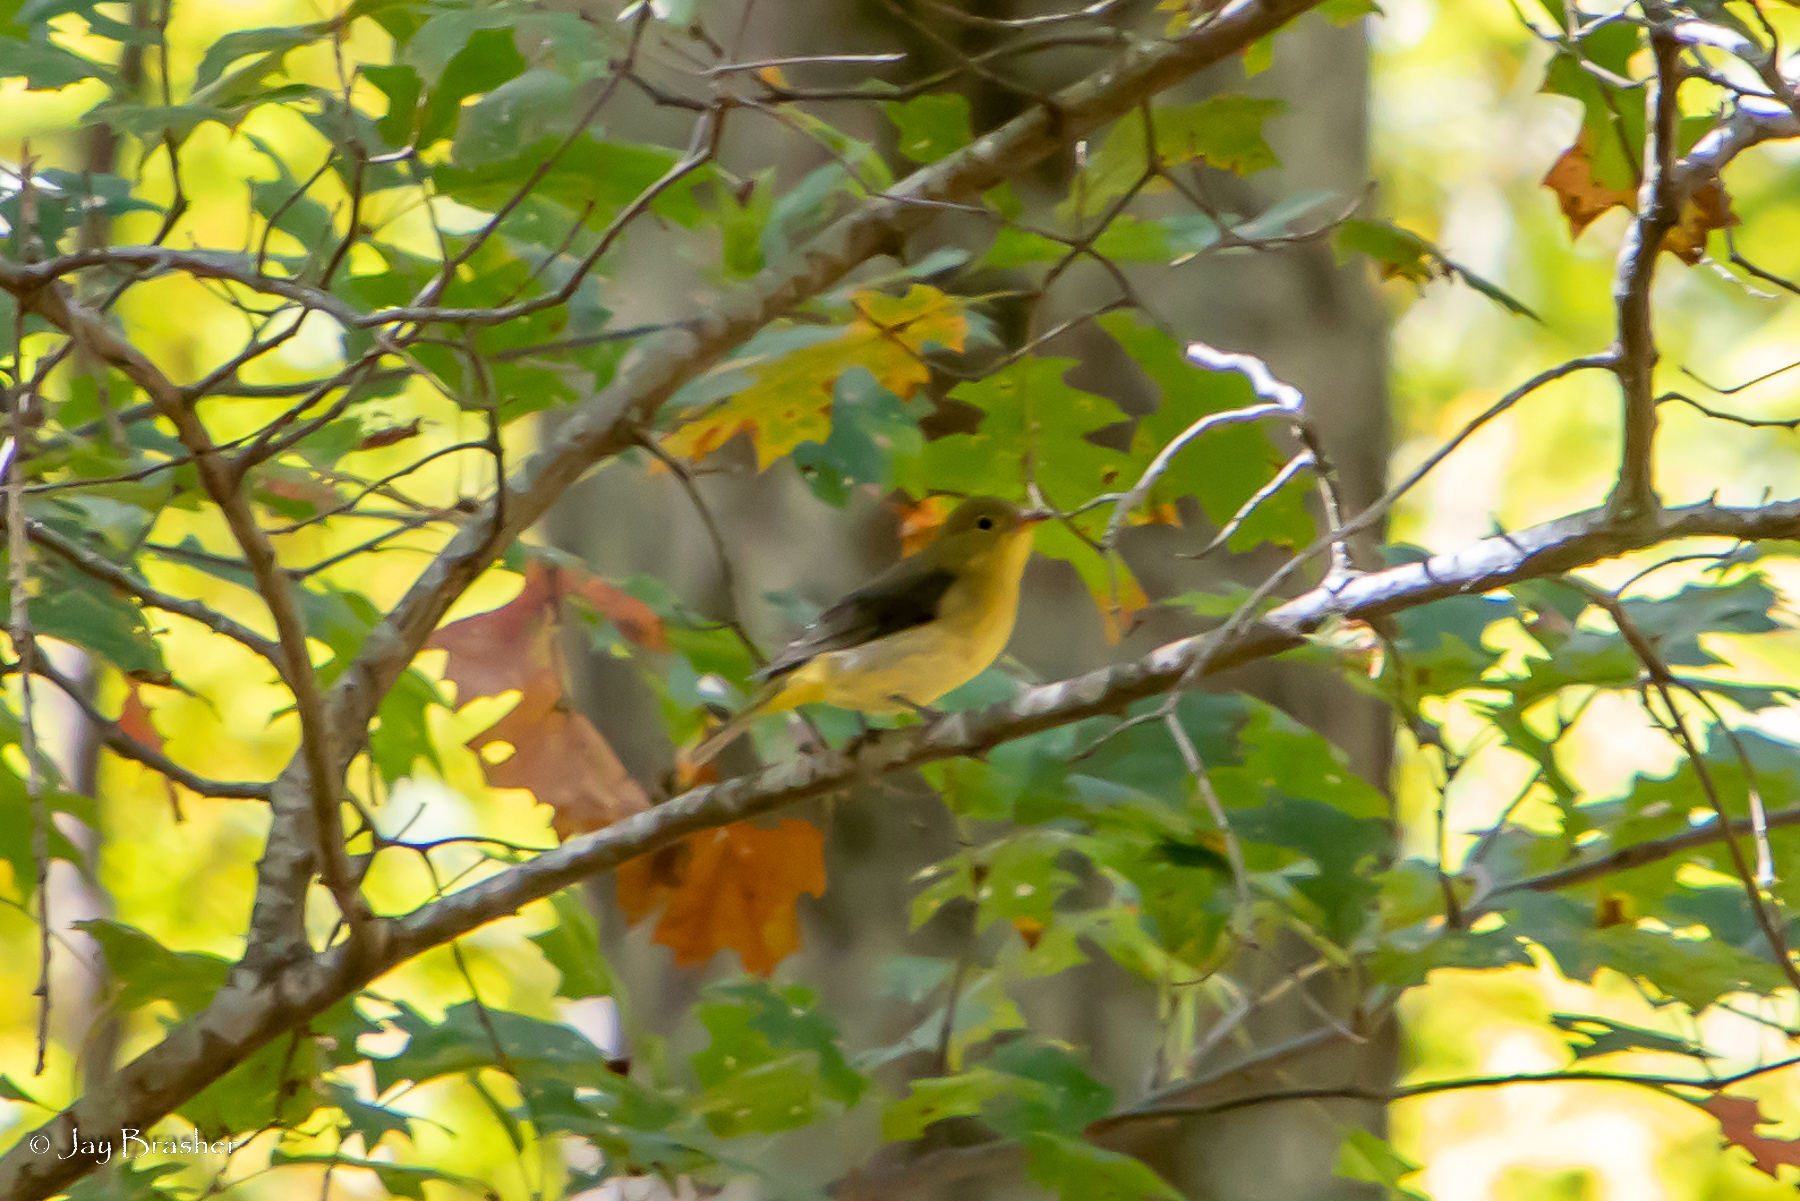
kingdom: Animalia
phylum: Chordata
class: Aves
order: Passeriformes
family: Cardinalidae
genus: Piranga
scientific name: Piranga olivacea
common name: Scarlet tanager
